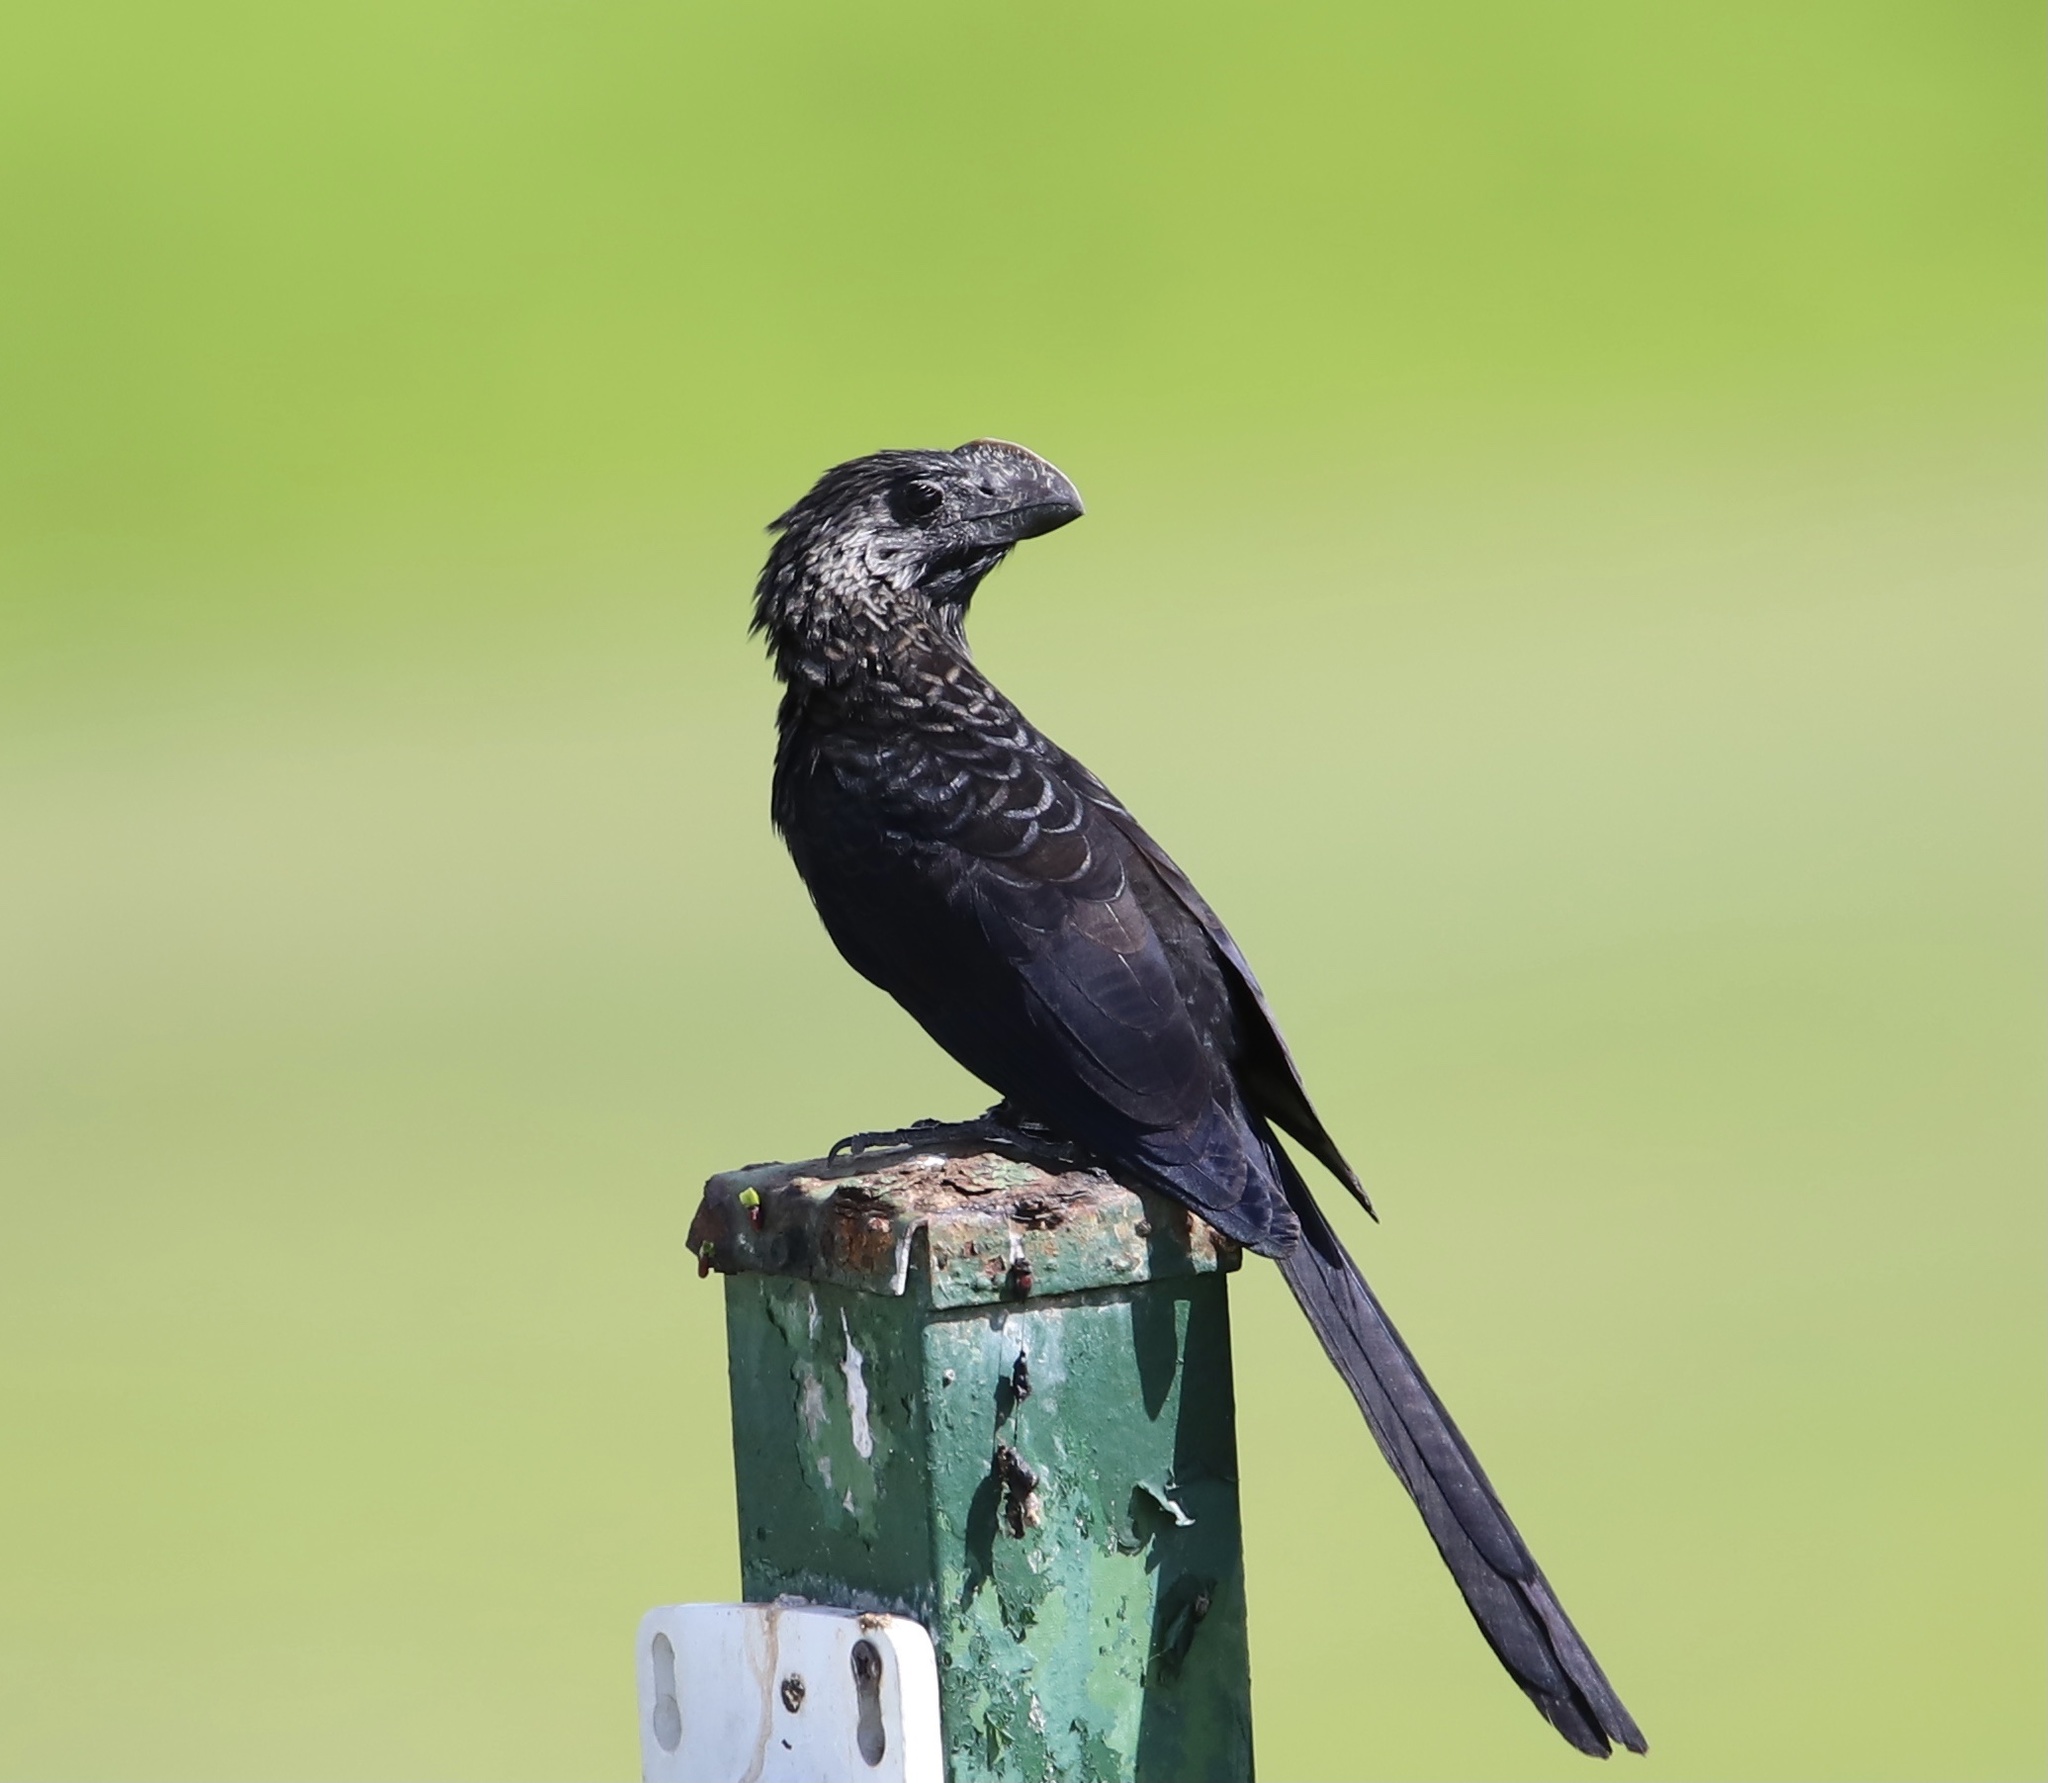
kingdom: Animalia
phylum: Chordata
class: Aves
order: Cuculiformes
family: Cuculidae
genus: Crotophaga
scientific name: Crotophaga ani
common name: Smooth-billed ani
